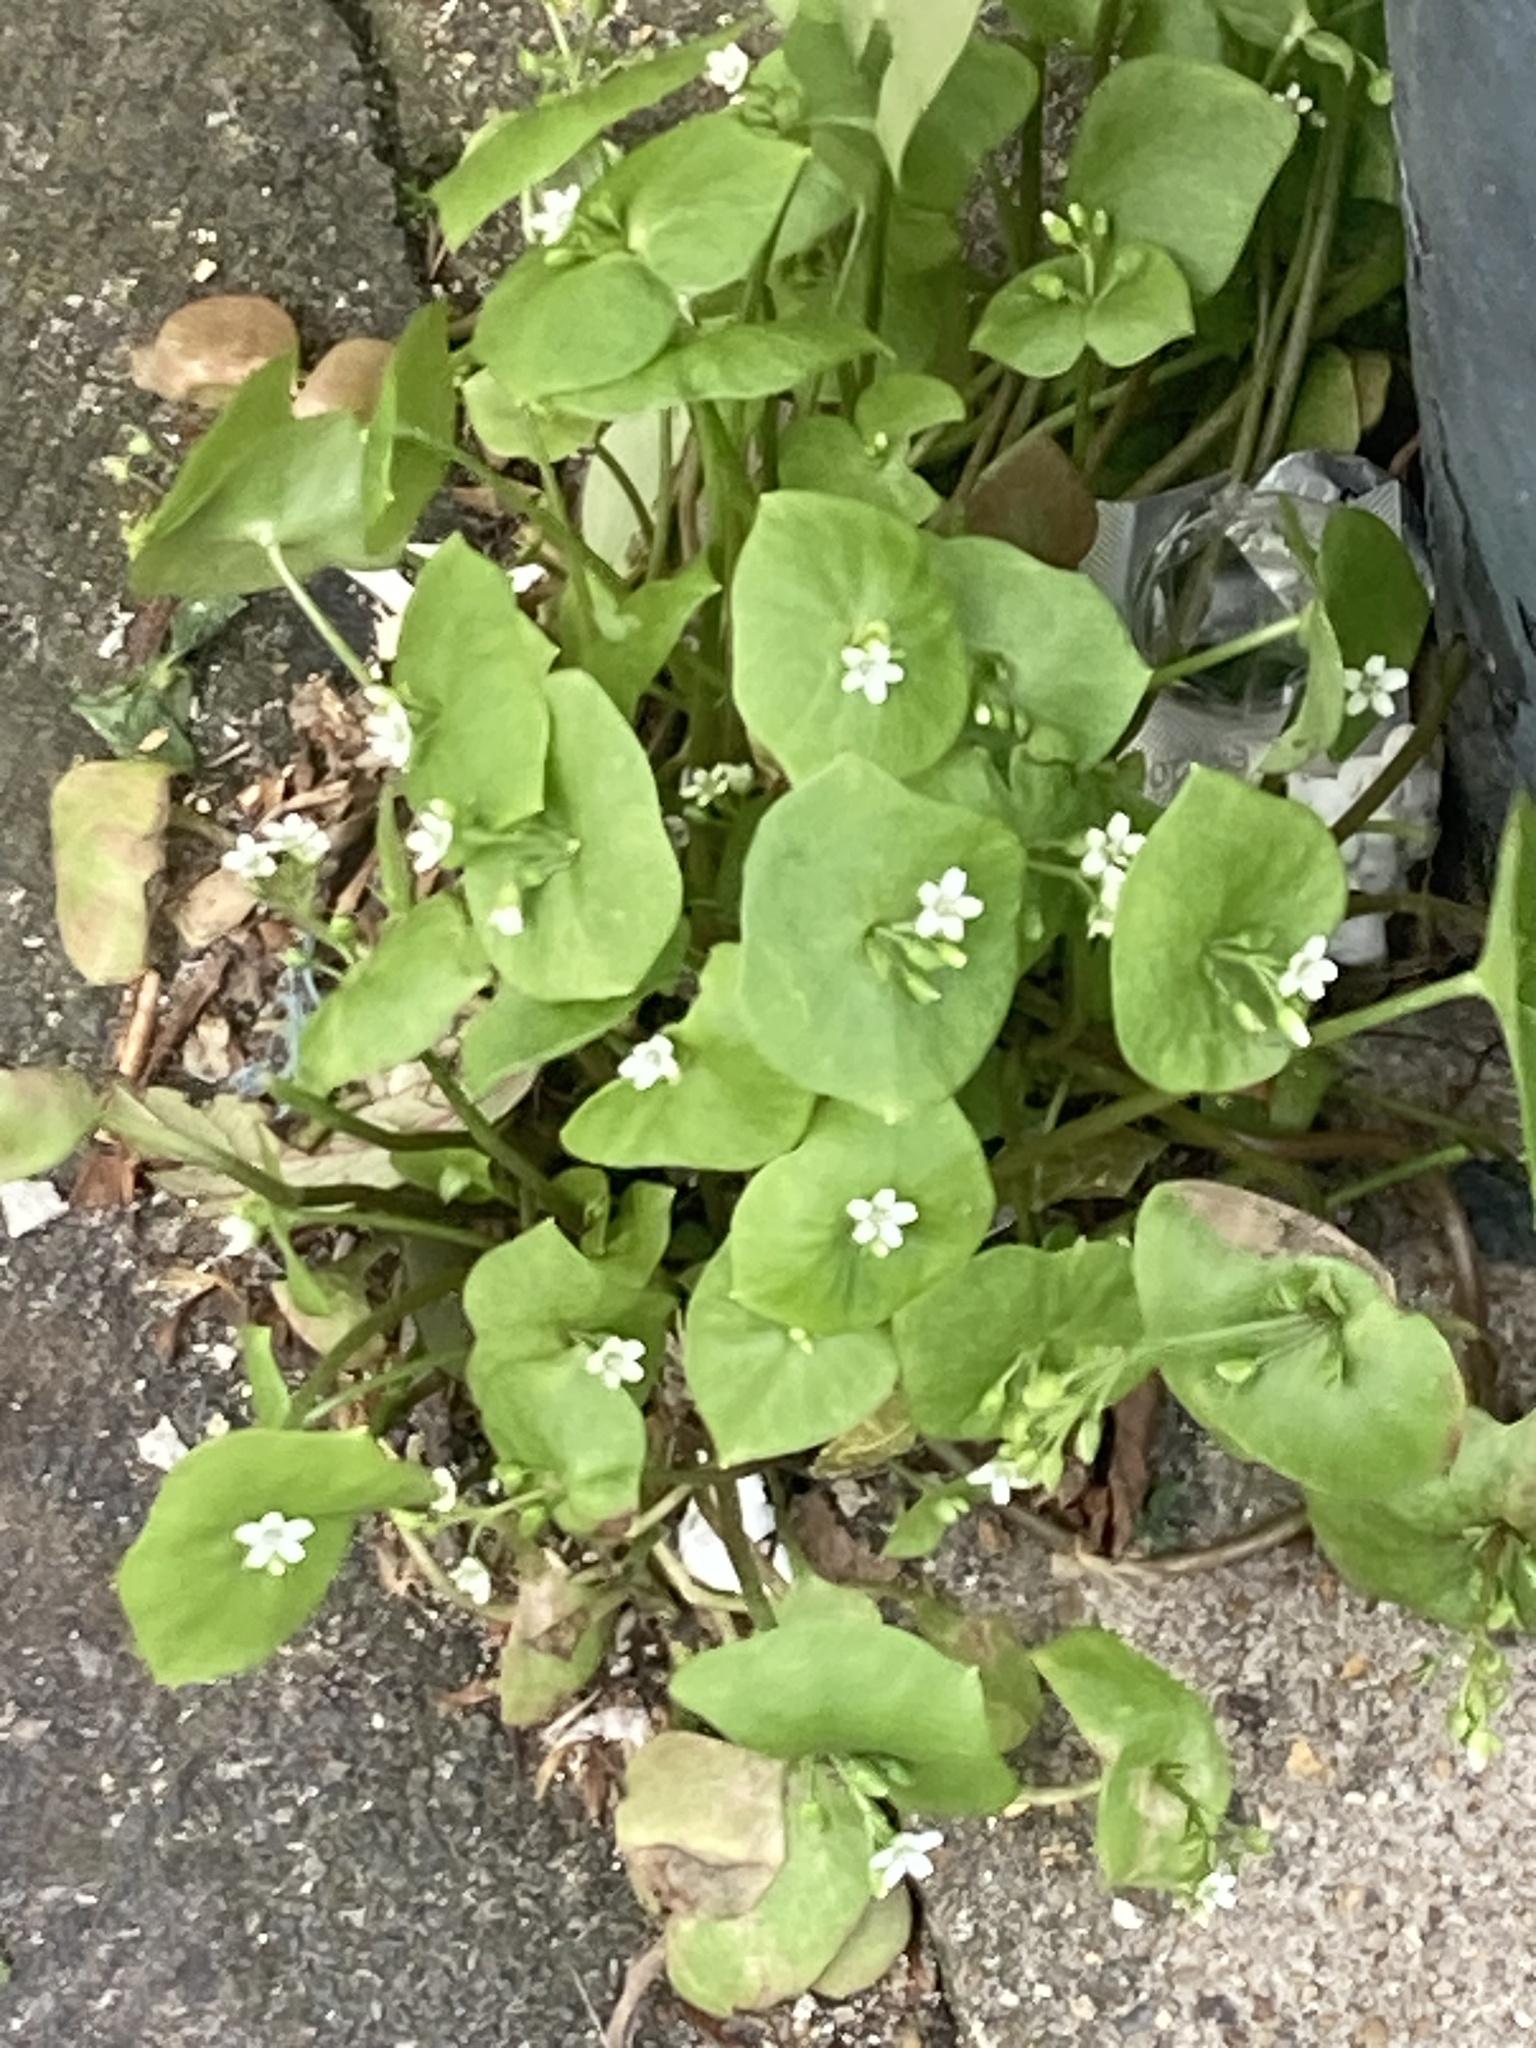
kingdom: Plantae
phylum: Tracheophyta
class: Magnoliopsida
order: Caryophyllales
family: Montiaceae
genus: Claytonia
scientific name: Claytonia perfoliata
